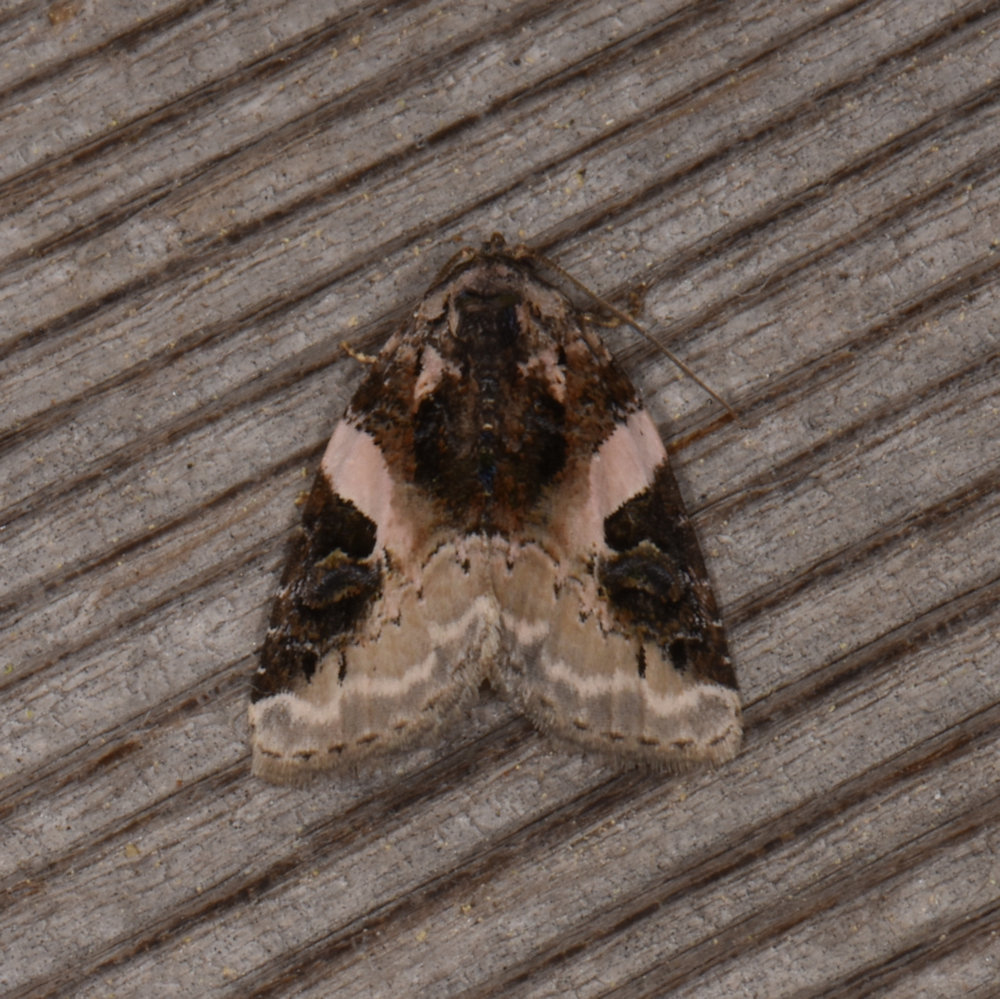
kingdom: Animalia
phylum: Arthropoda
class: Insecta
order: Lepidoptera
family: Noctuidae
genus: Pseudeustrotia
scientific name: Pseudeustrotia carneola
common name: Pink-barred lithacodia moth
